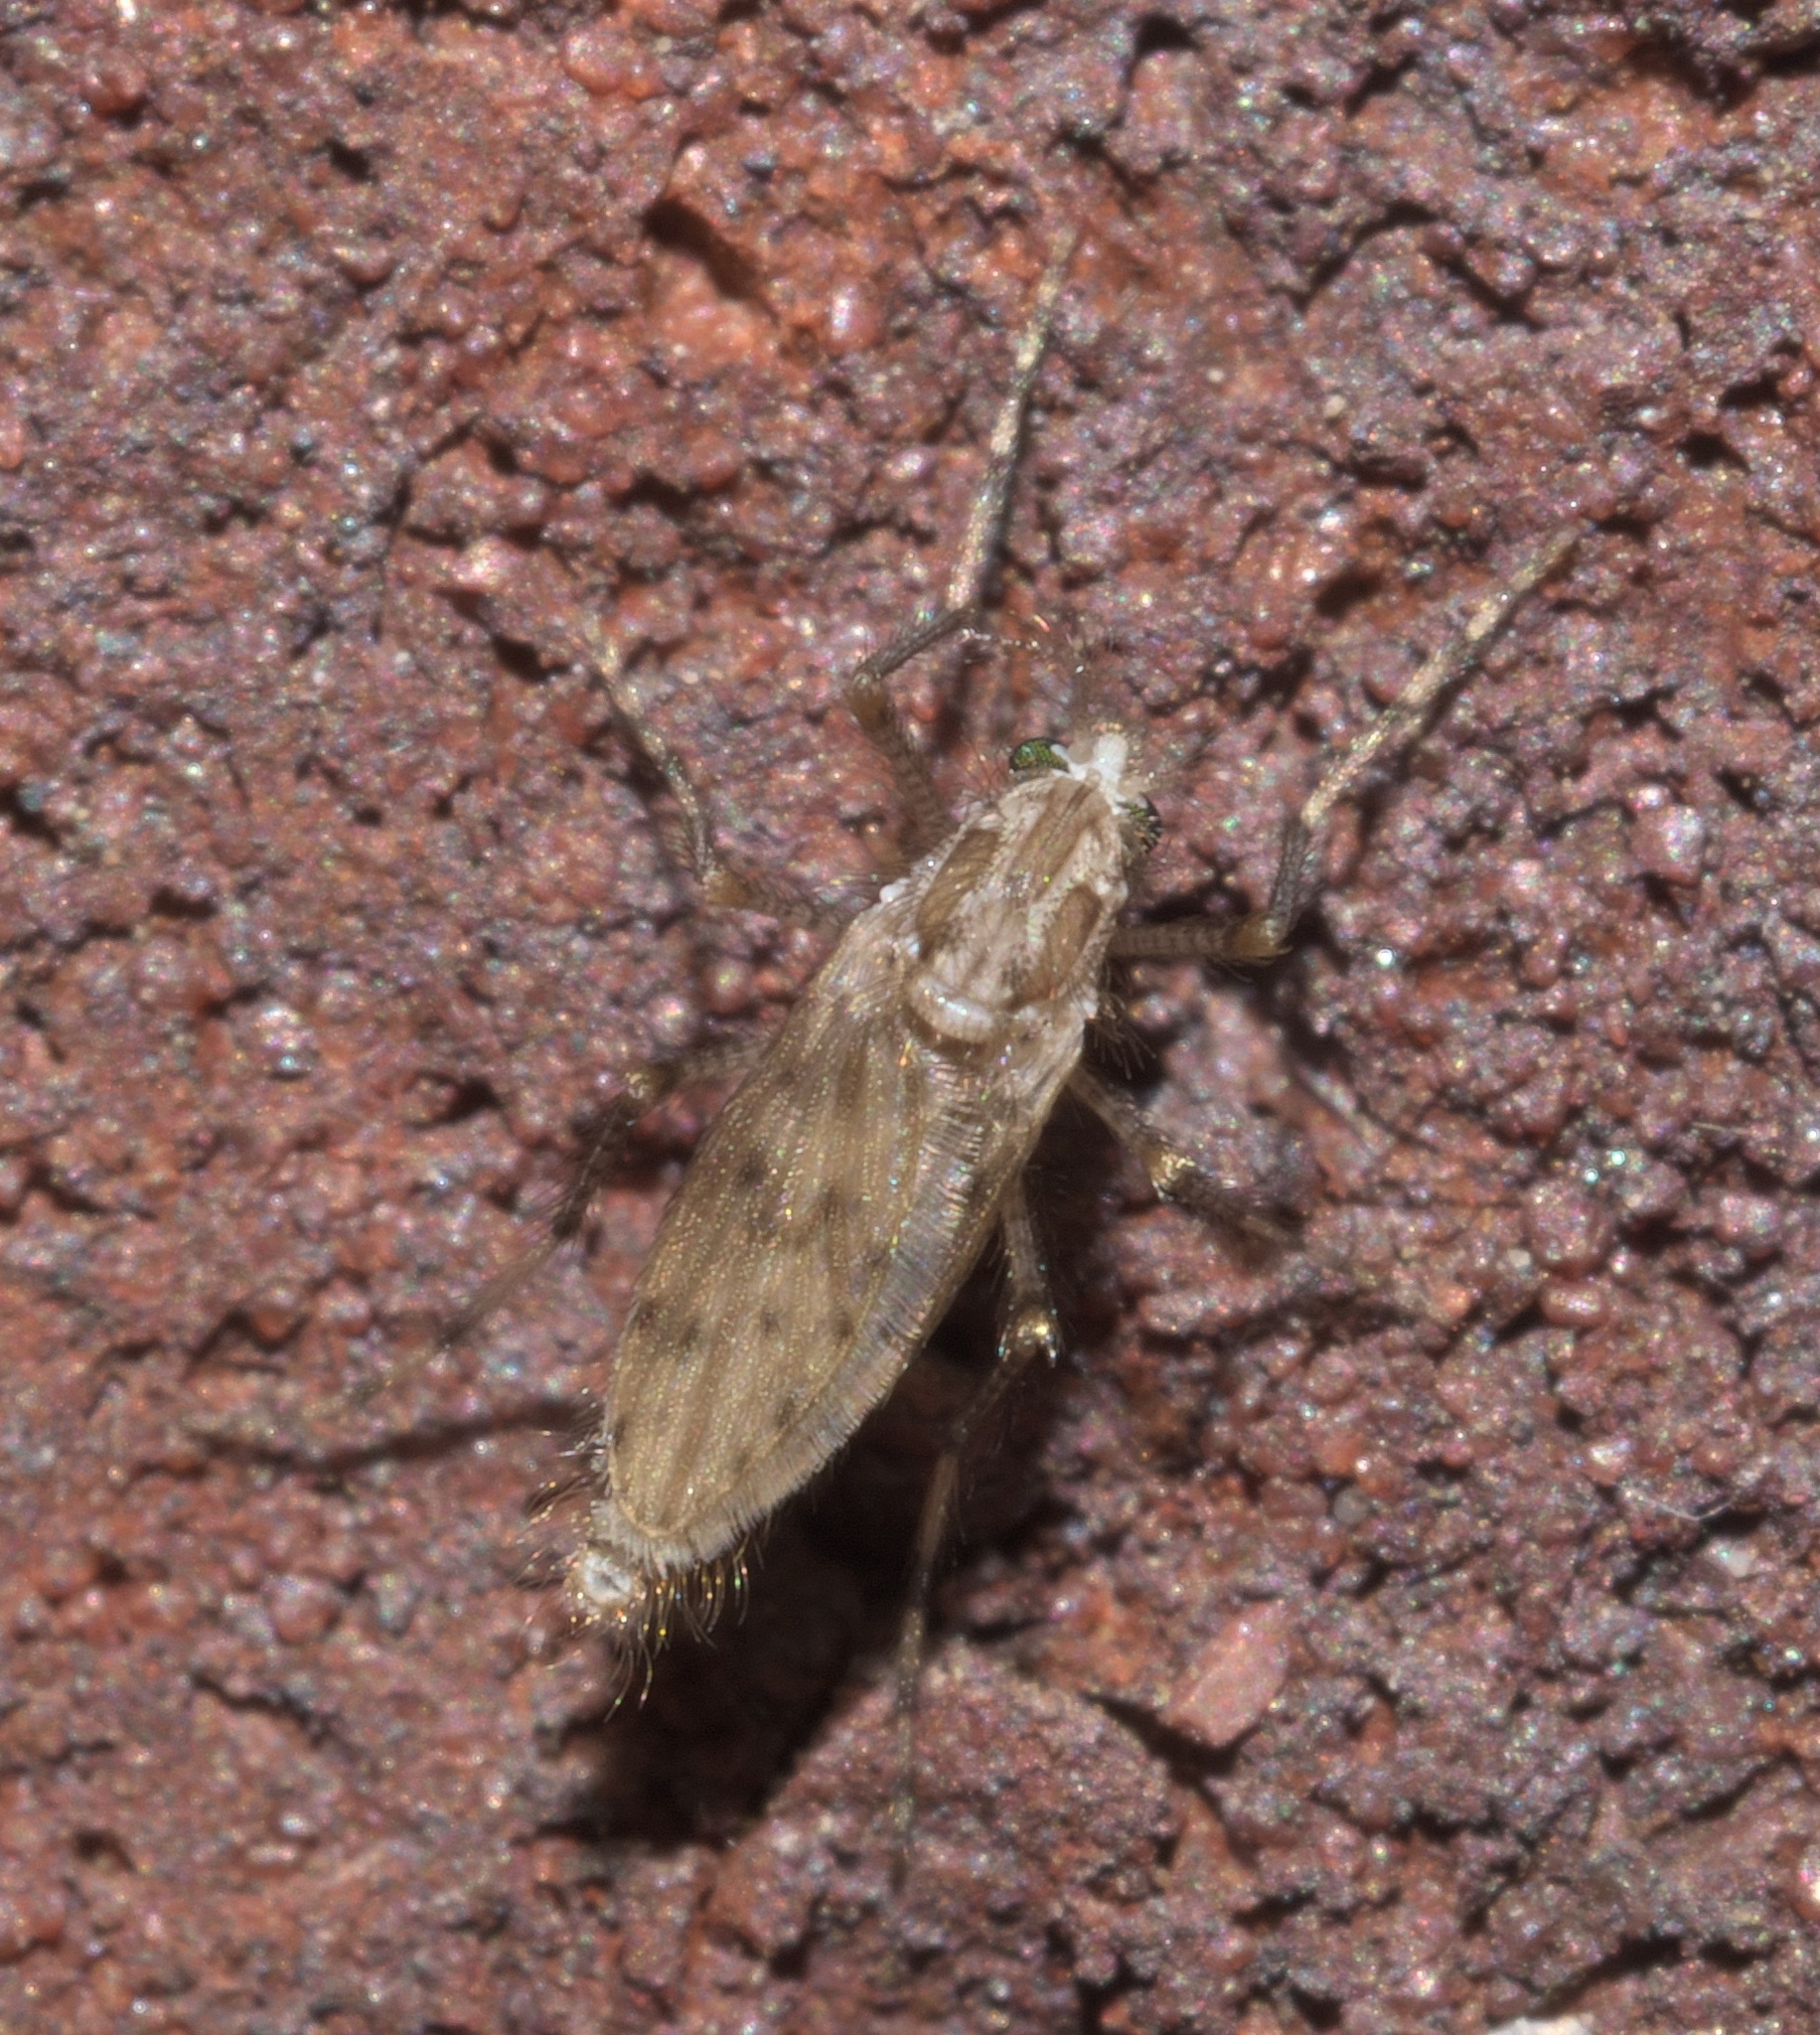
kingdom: Animalia
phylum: Arthropoda
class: Insecta
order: Diptera
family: Chaoboridae
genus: Chaoborus
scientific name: Chaoborus punctipennis
